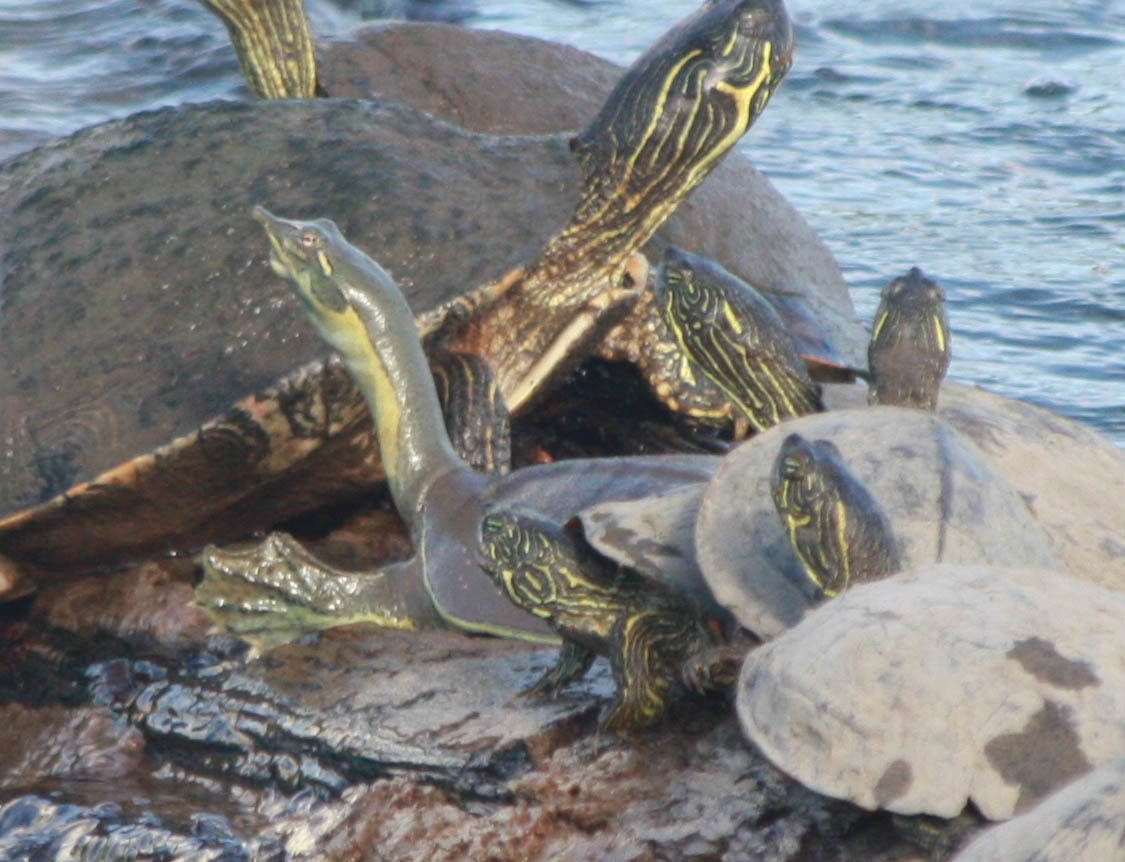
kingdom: Animalia
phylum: Chordata
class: Testudines
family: Trionychidae
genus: Apalone
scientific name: Apalone spinifera
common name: Spiny softshell turtle
